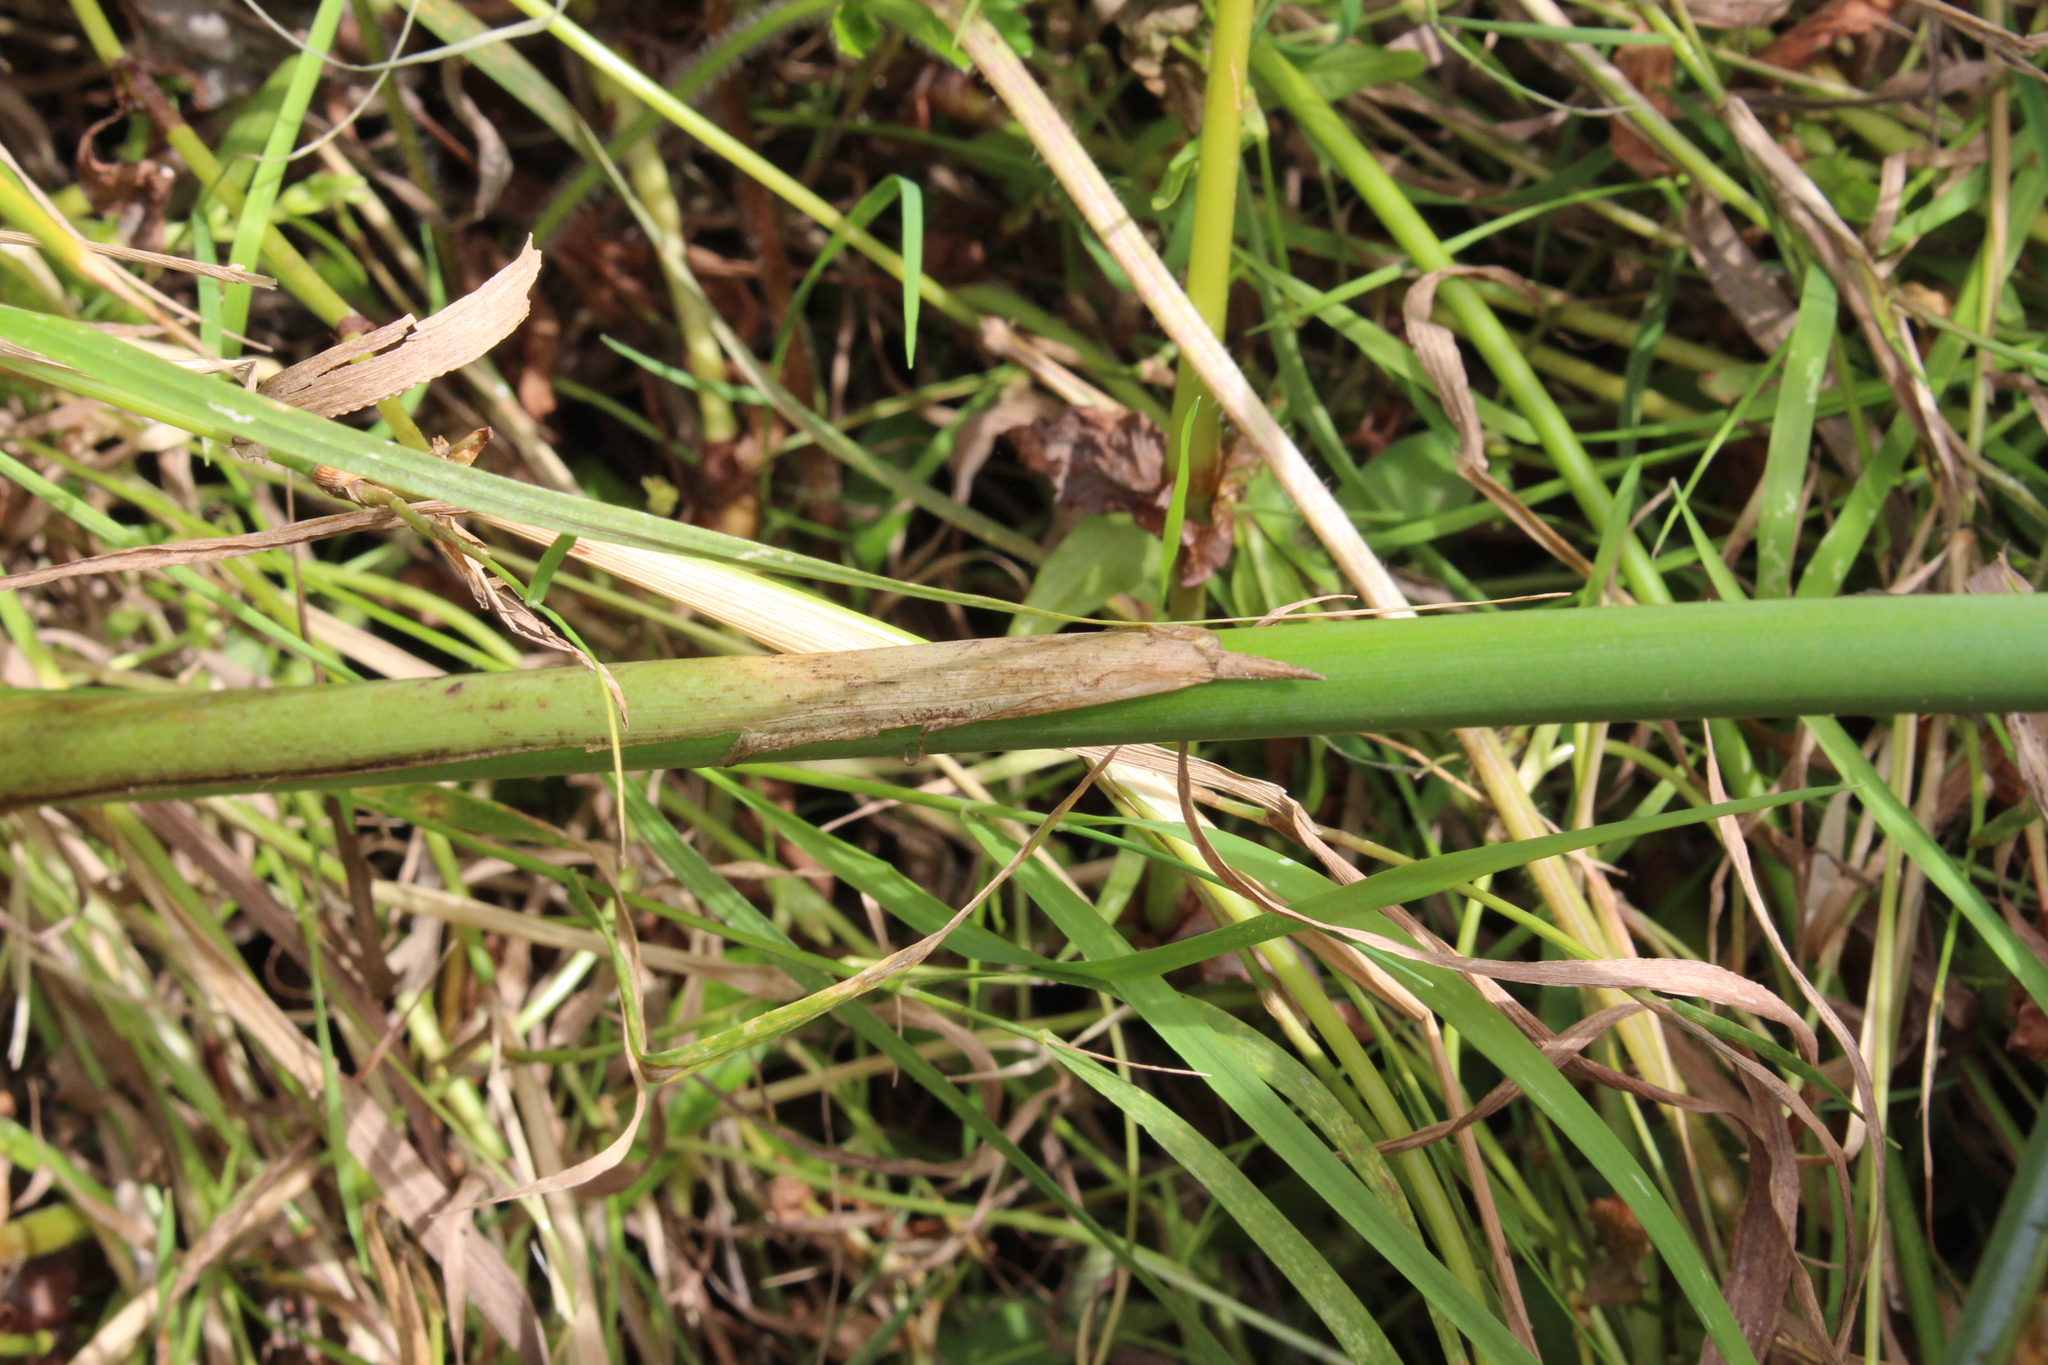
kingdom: Plantae
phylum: Tracheophyta
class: Liliopsida
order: Poales
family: Cyperaceae
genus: Schoenoplectus
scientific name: Schoenoplectus tabernaemontani
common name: Grey club-rush
